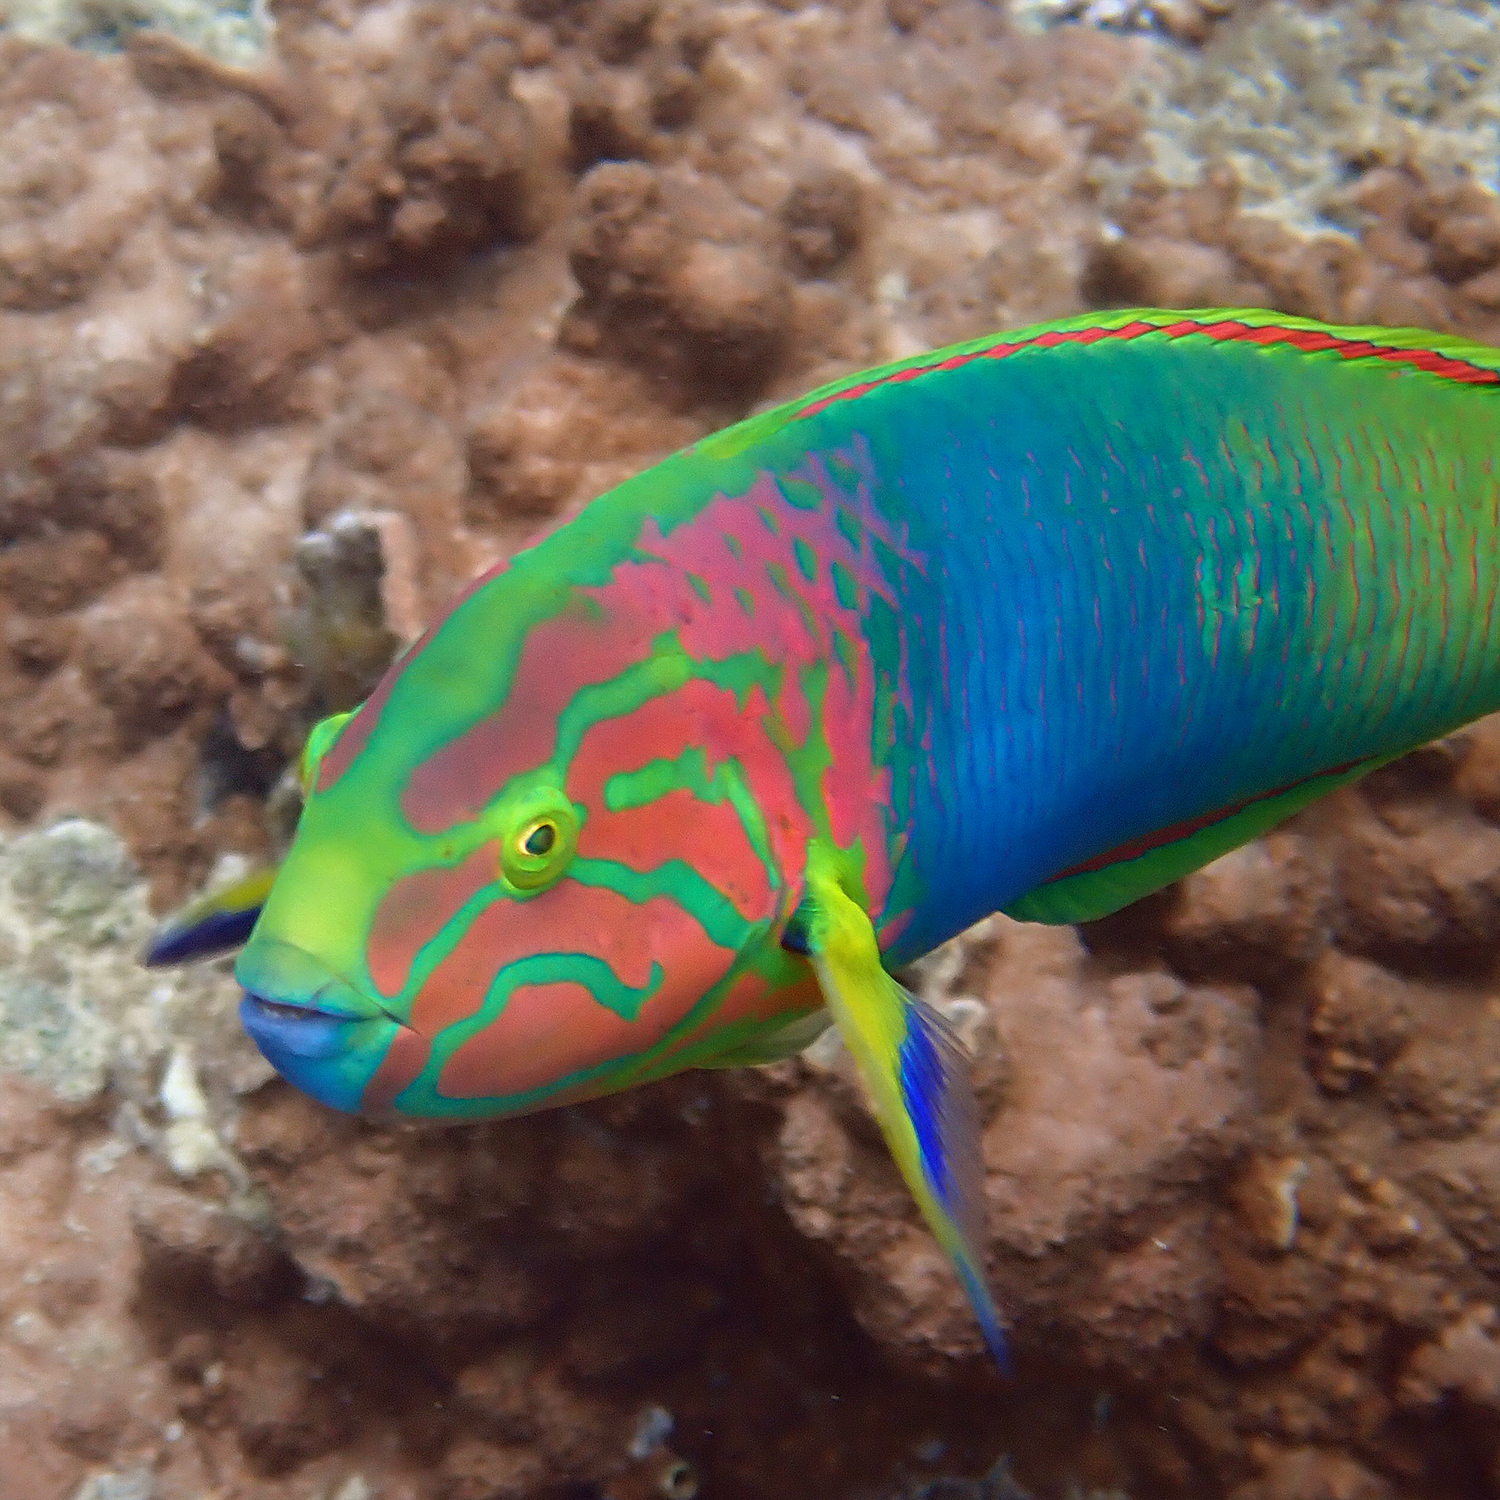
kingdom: Animalia
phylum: Chordata
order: Perciformes
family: Labridae
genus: Thalassoma
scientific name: Thalassoma lutescens
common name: Green moon wrasse
